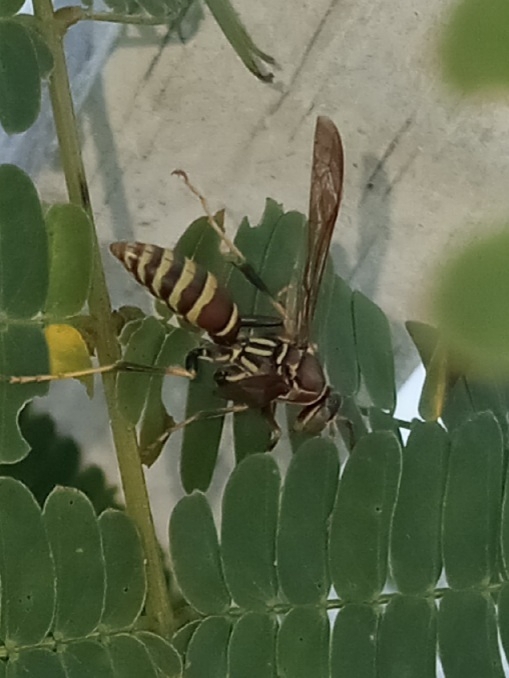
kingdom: Animalia
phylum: Arthropoda
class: Insecta
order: Hymenoptera
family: Eumenidae
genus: Polistes
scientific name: Polistes exclamans
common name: Paper wasp
